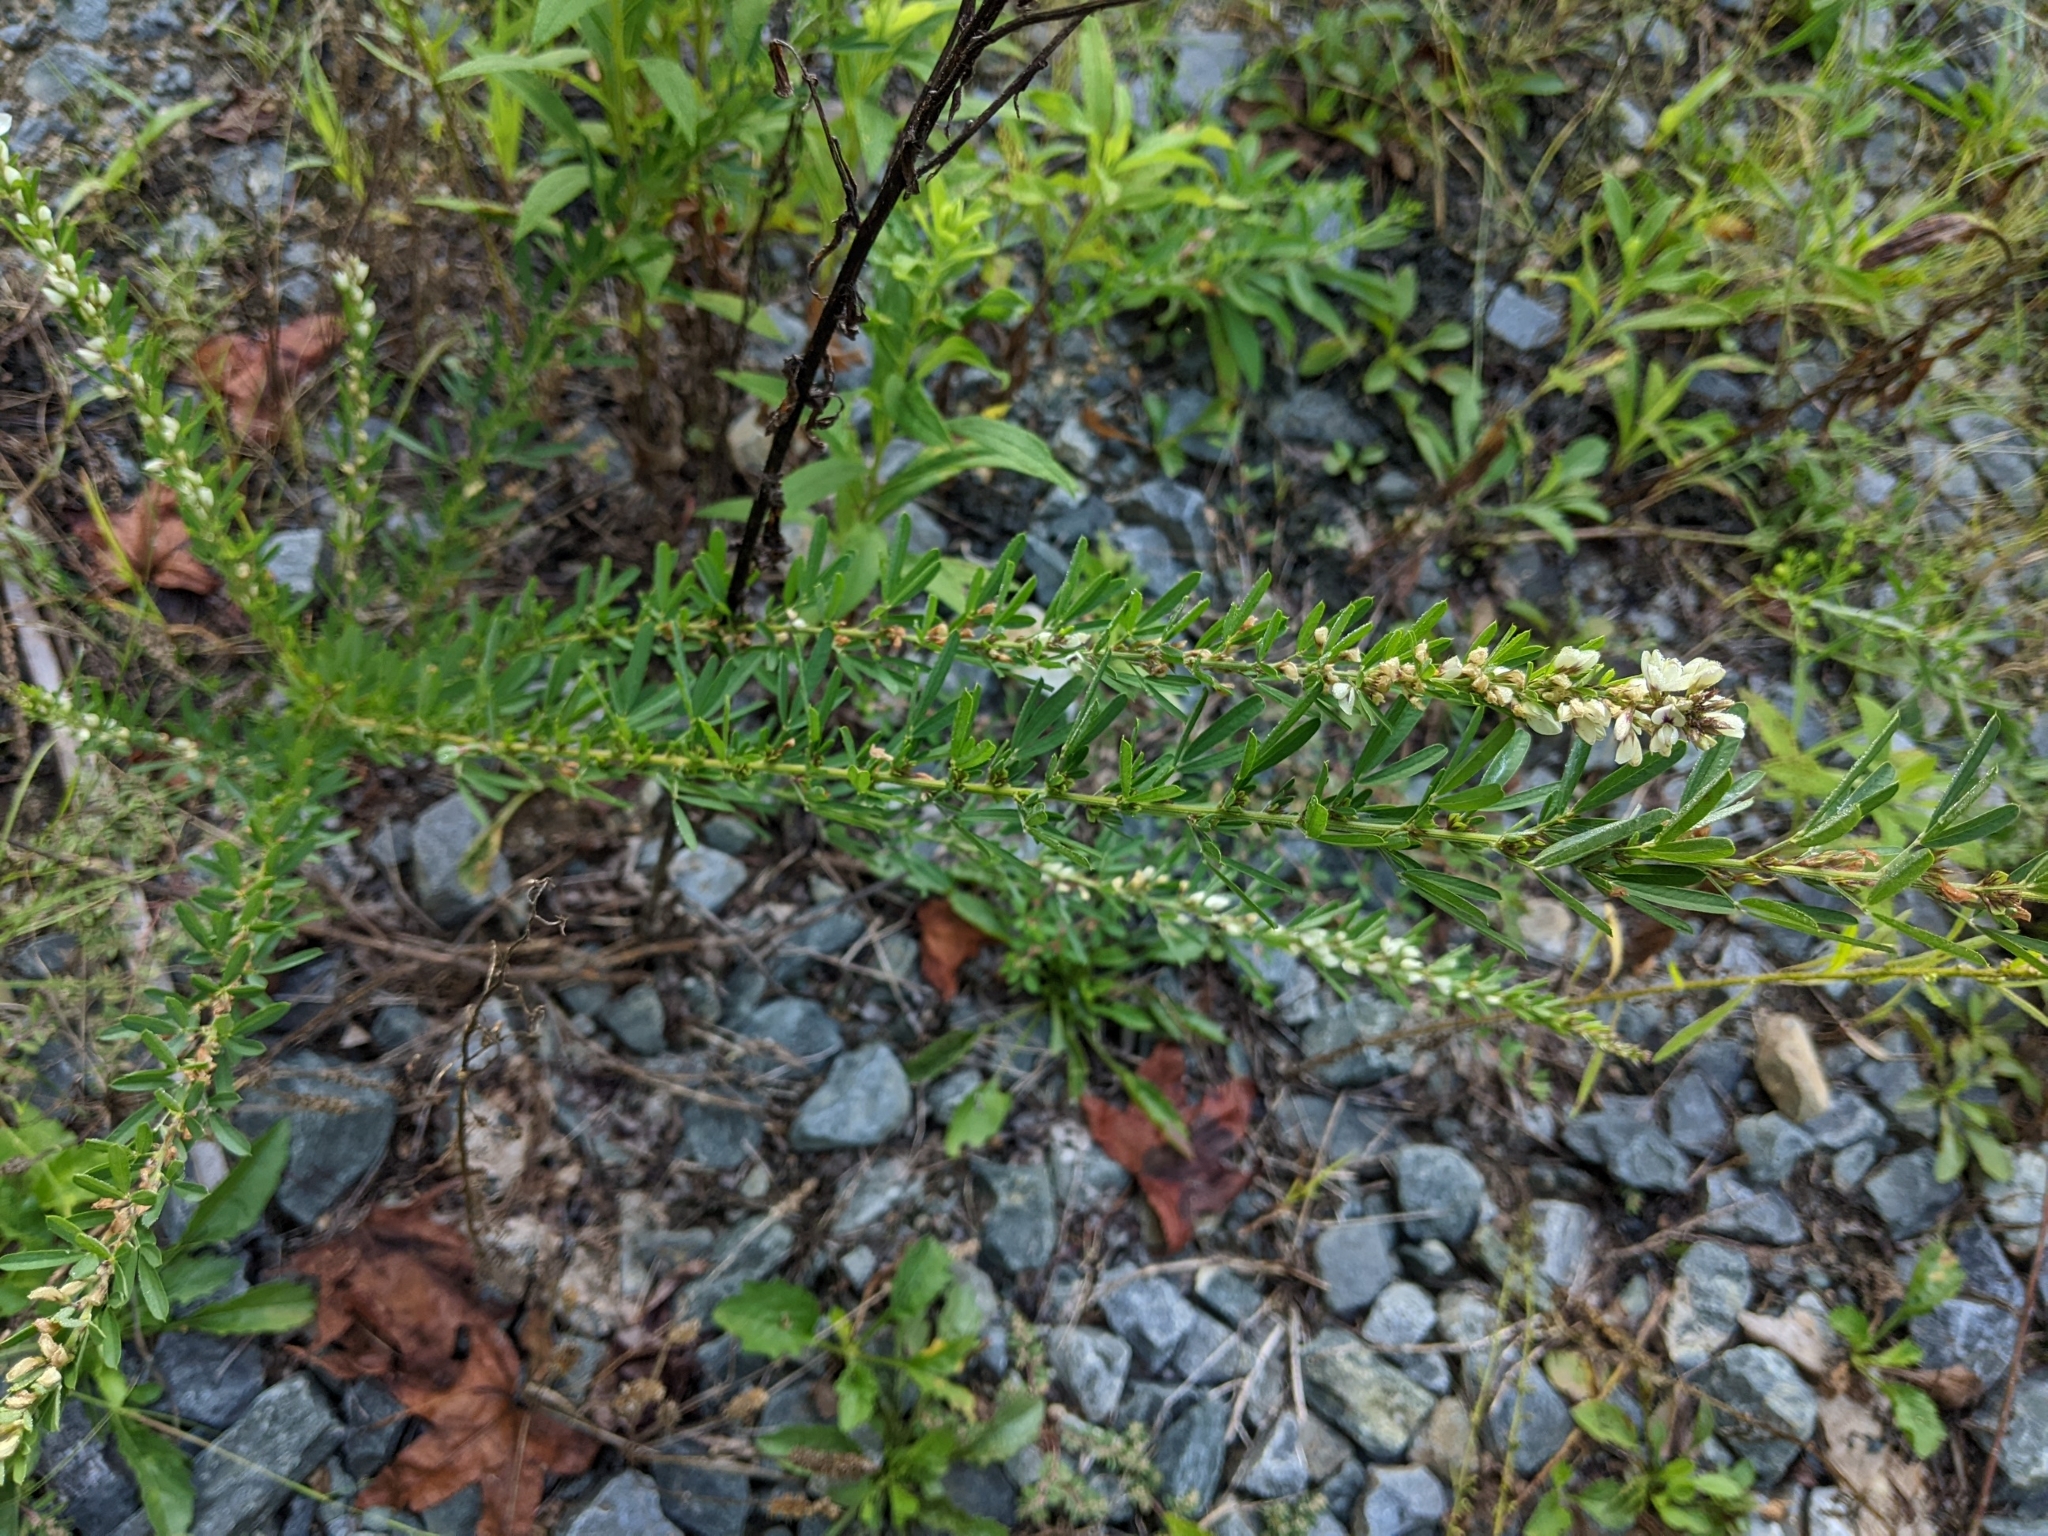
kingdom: Plantae
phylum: Tracheophyta
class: Magnoliopsida
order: Fabales
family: Fabaceae
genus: Lespedeza
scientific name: Lespedeza cuneata
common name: Chinese bush-clover
